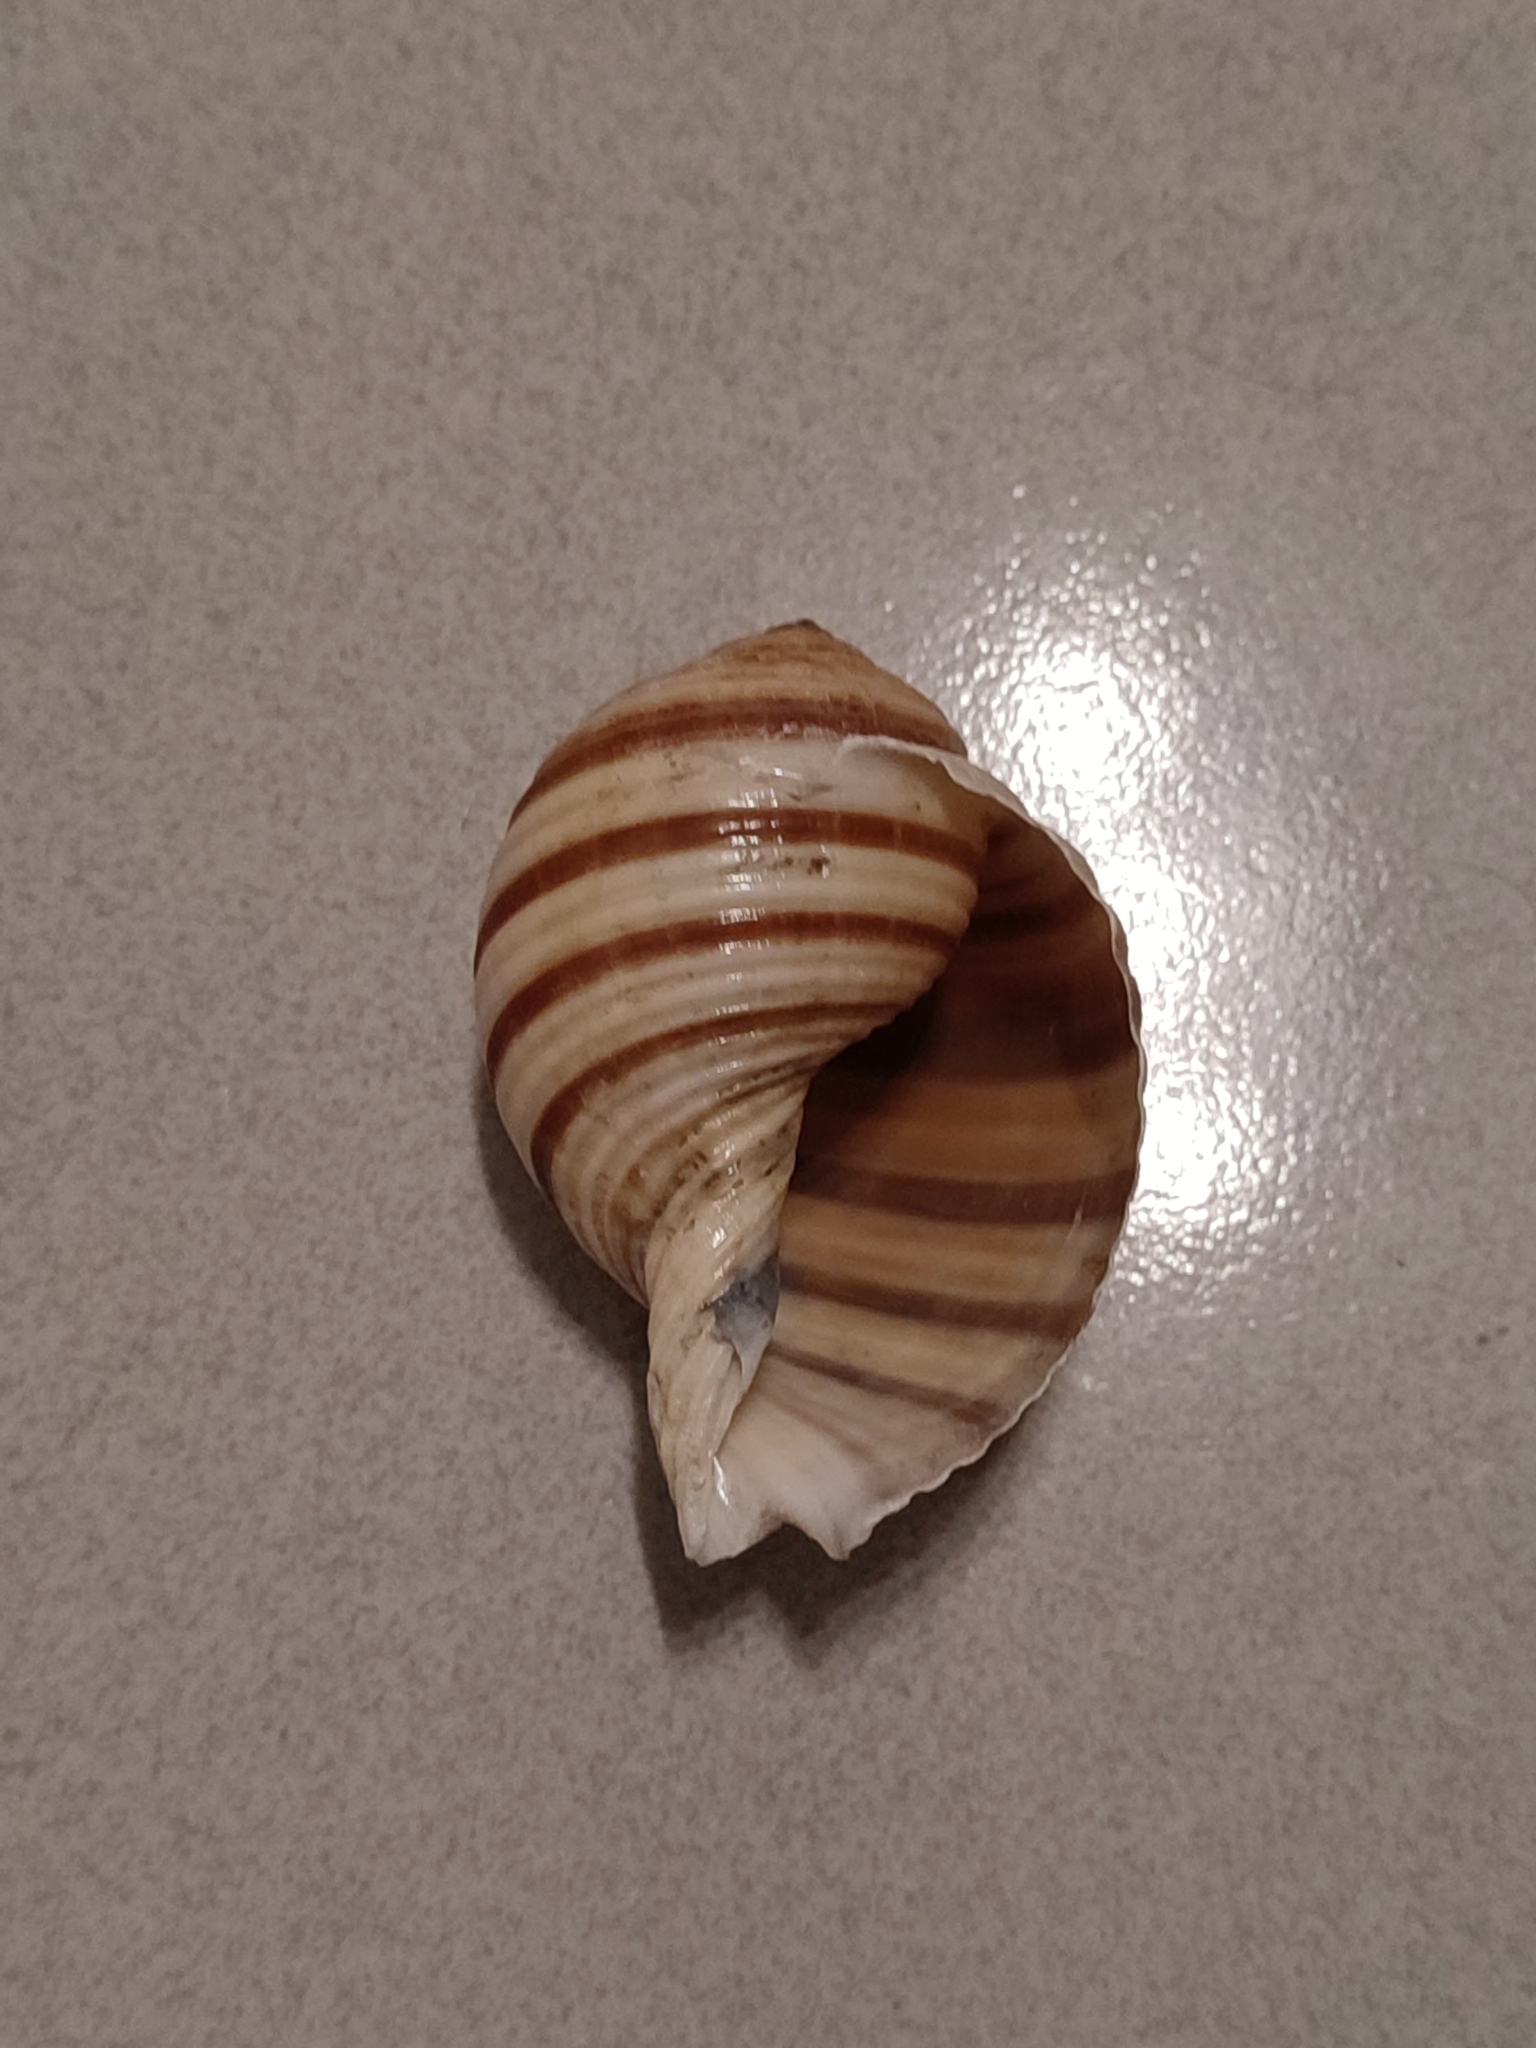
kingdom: Animalia
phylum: Mollusca
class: Gastropoda
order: Littorinimorpha
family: Tonnidae
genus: Tonna
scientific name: Tonna sulcosa
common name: Banded tun
